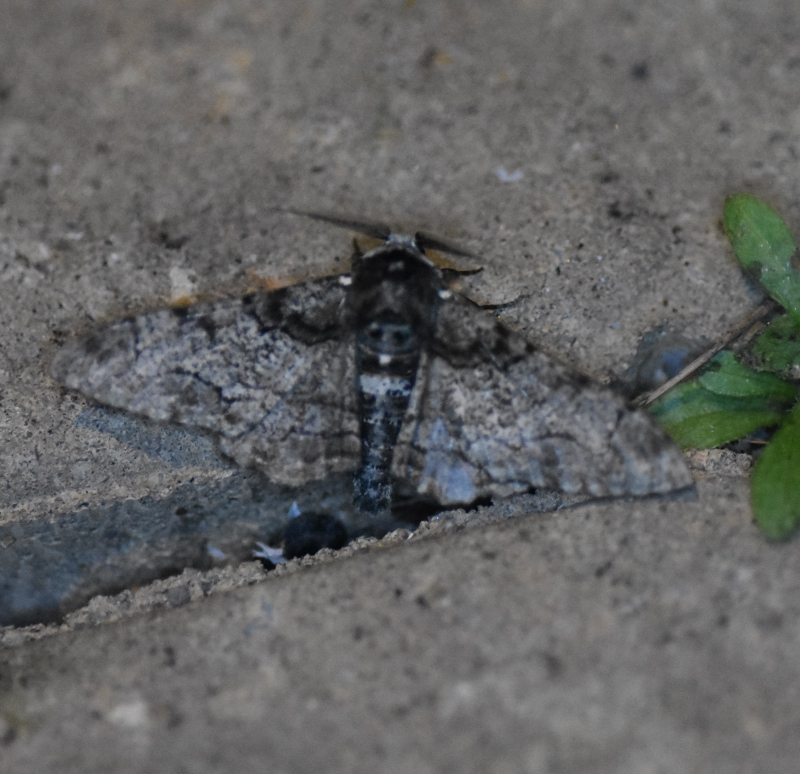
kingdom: Animalia
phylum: Arthropoda
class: Insecta
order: Lepidoptera
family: Geometridae
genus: Biston
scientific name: Biston betularia
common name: Peppered moth
